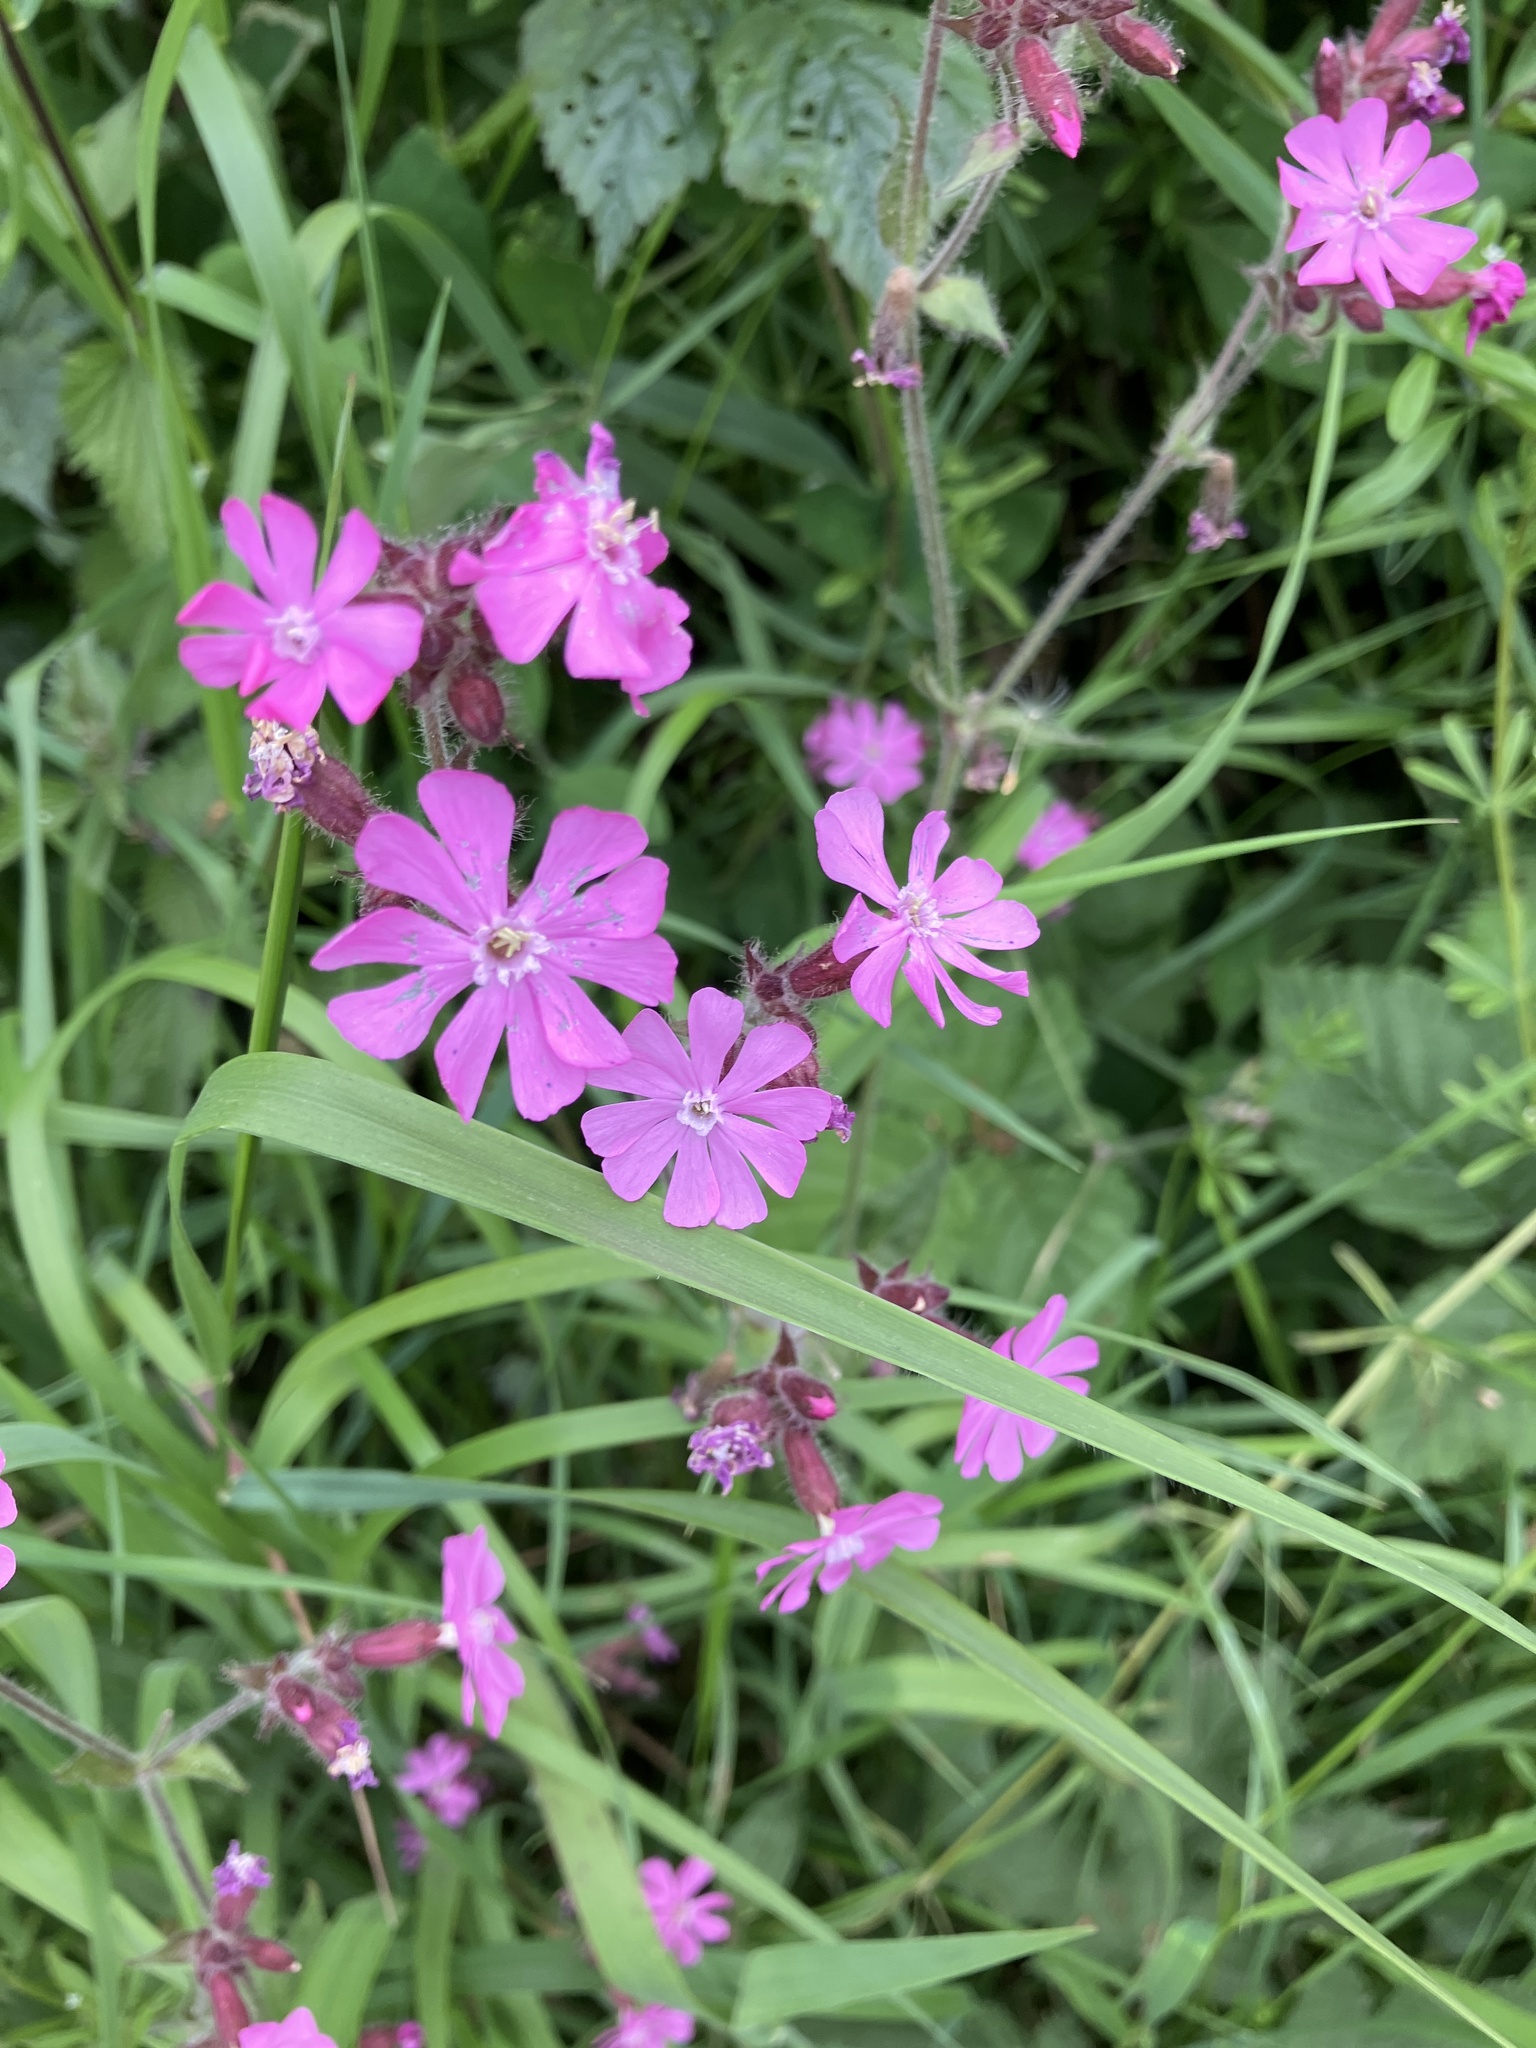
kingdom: Plantae
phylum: Tracheophyta
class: Magnoliopsida
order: Caryophyllales
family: Caryophyllaceae
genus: Silene
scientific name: Silene dioica
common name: Red campion
